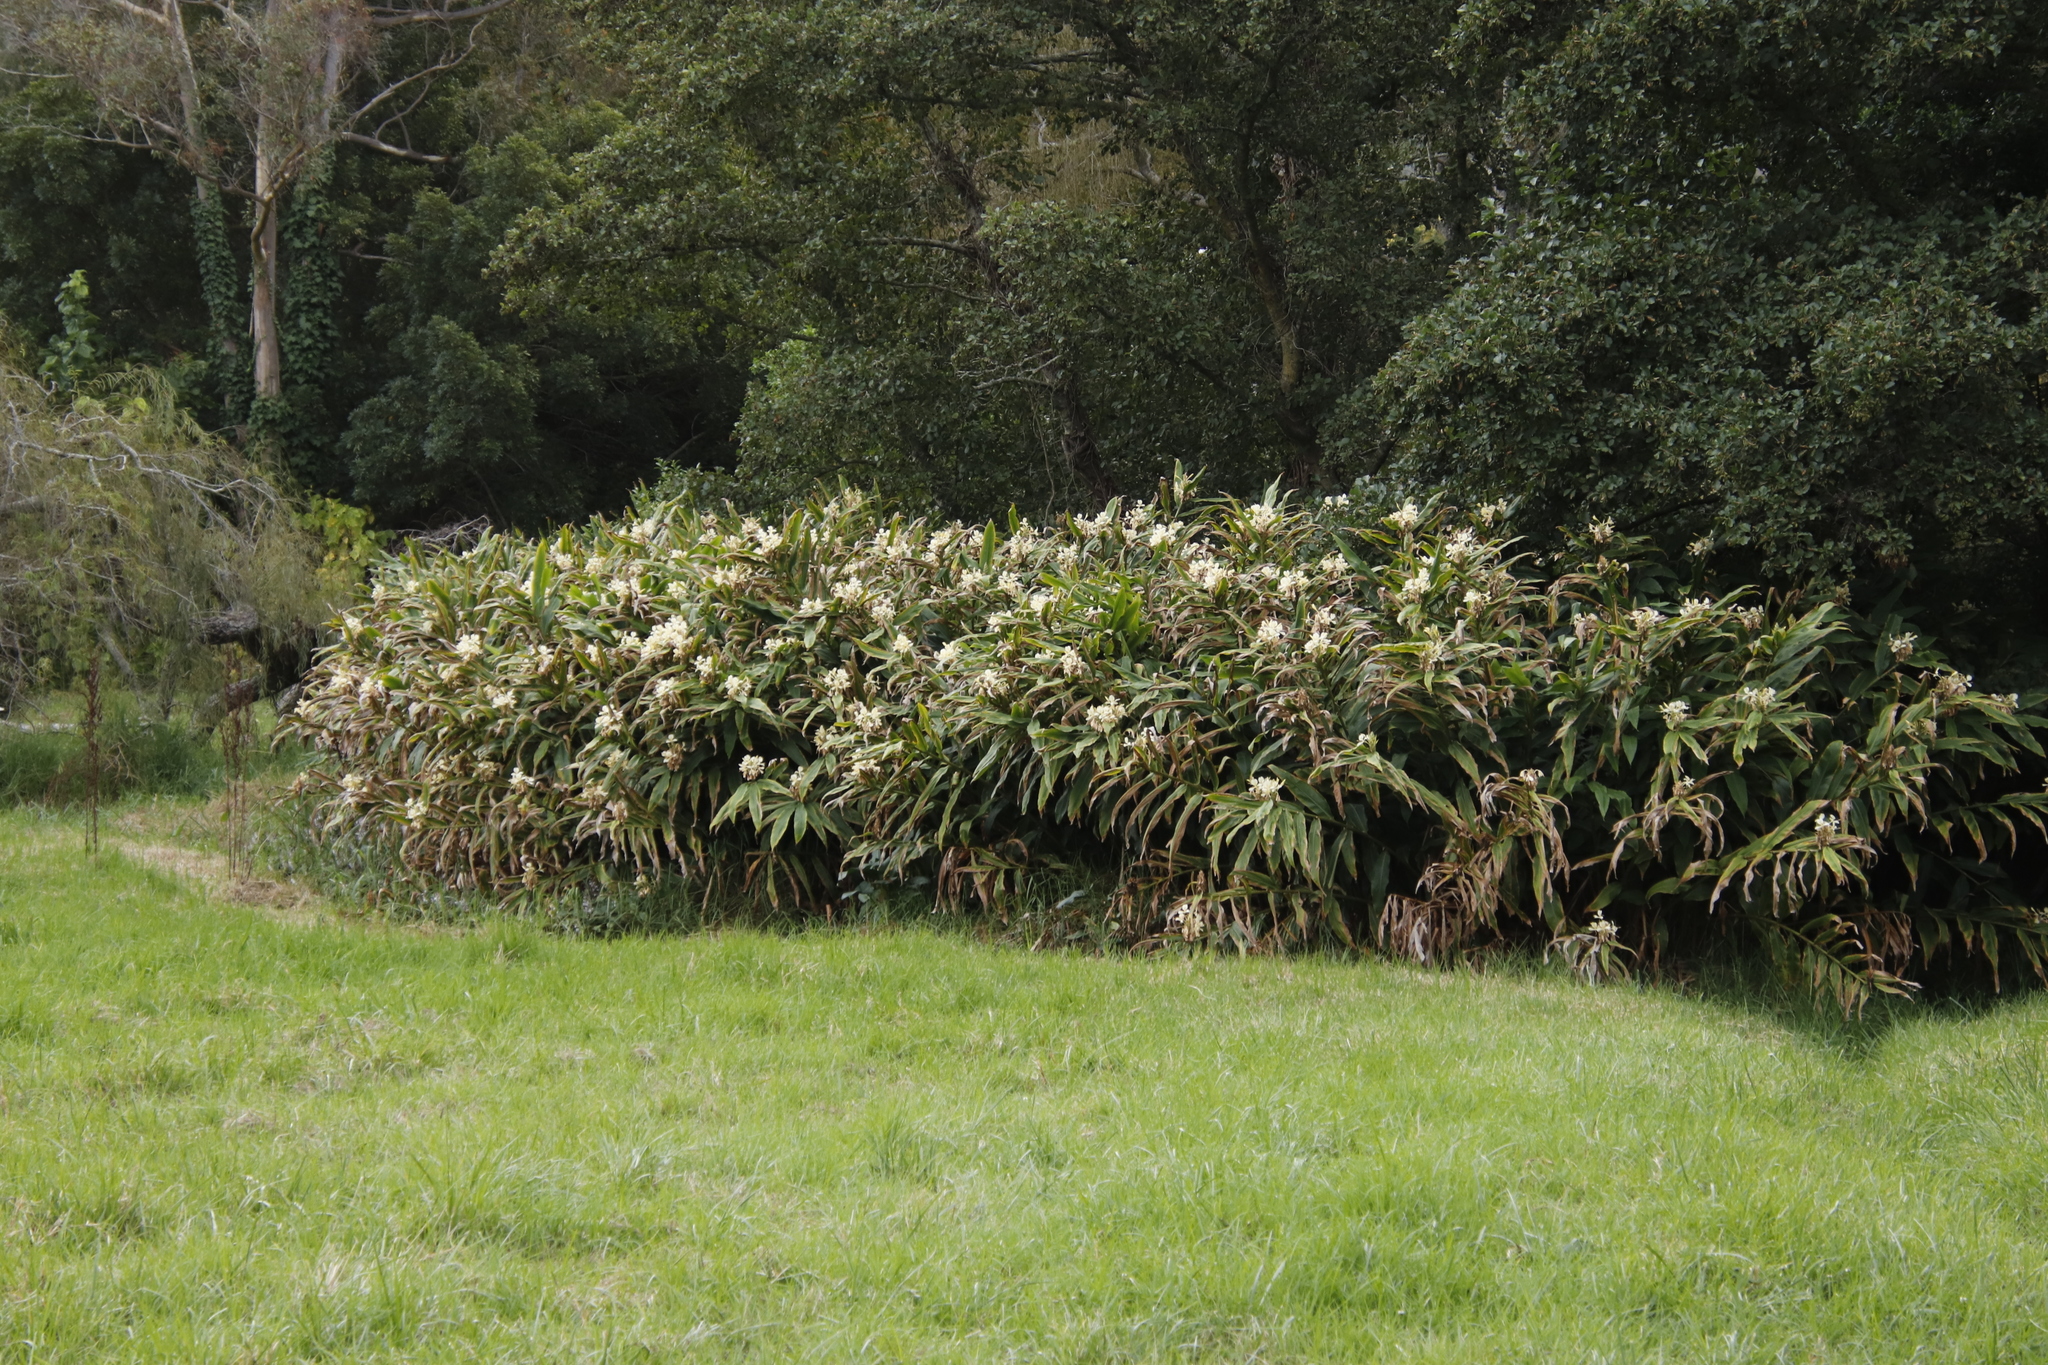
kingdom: Plantae
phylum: Tracheophyta
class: Liliopsida
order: Zingiberales
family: Zingiberaceae
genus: Hedychium
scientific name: Hedychium flavescens
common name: Yellow ginger
